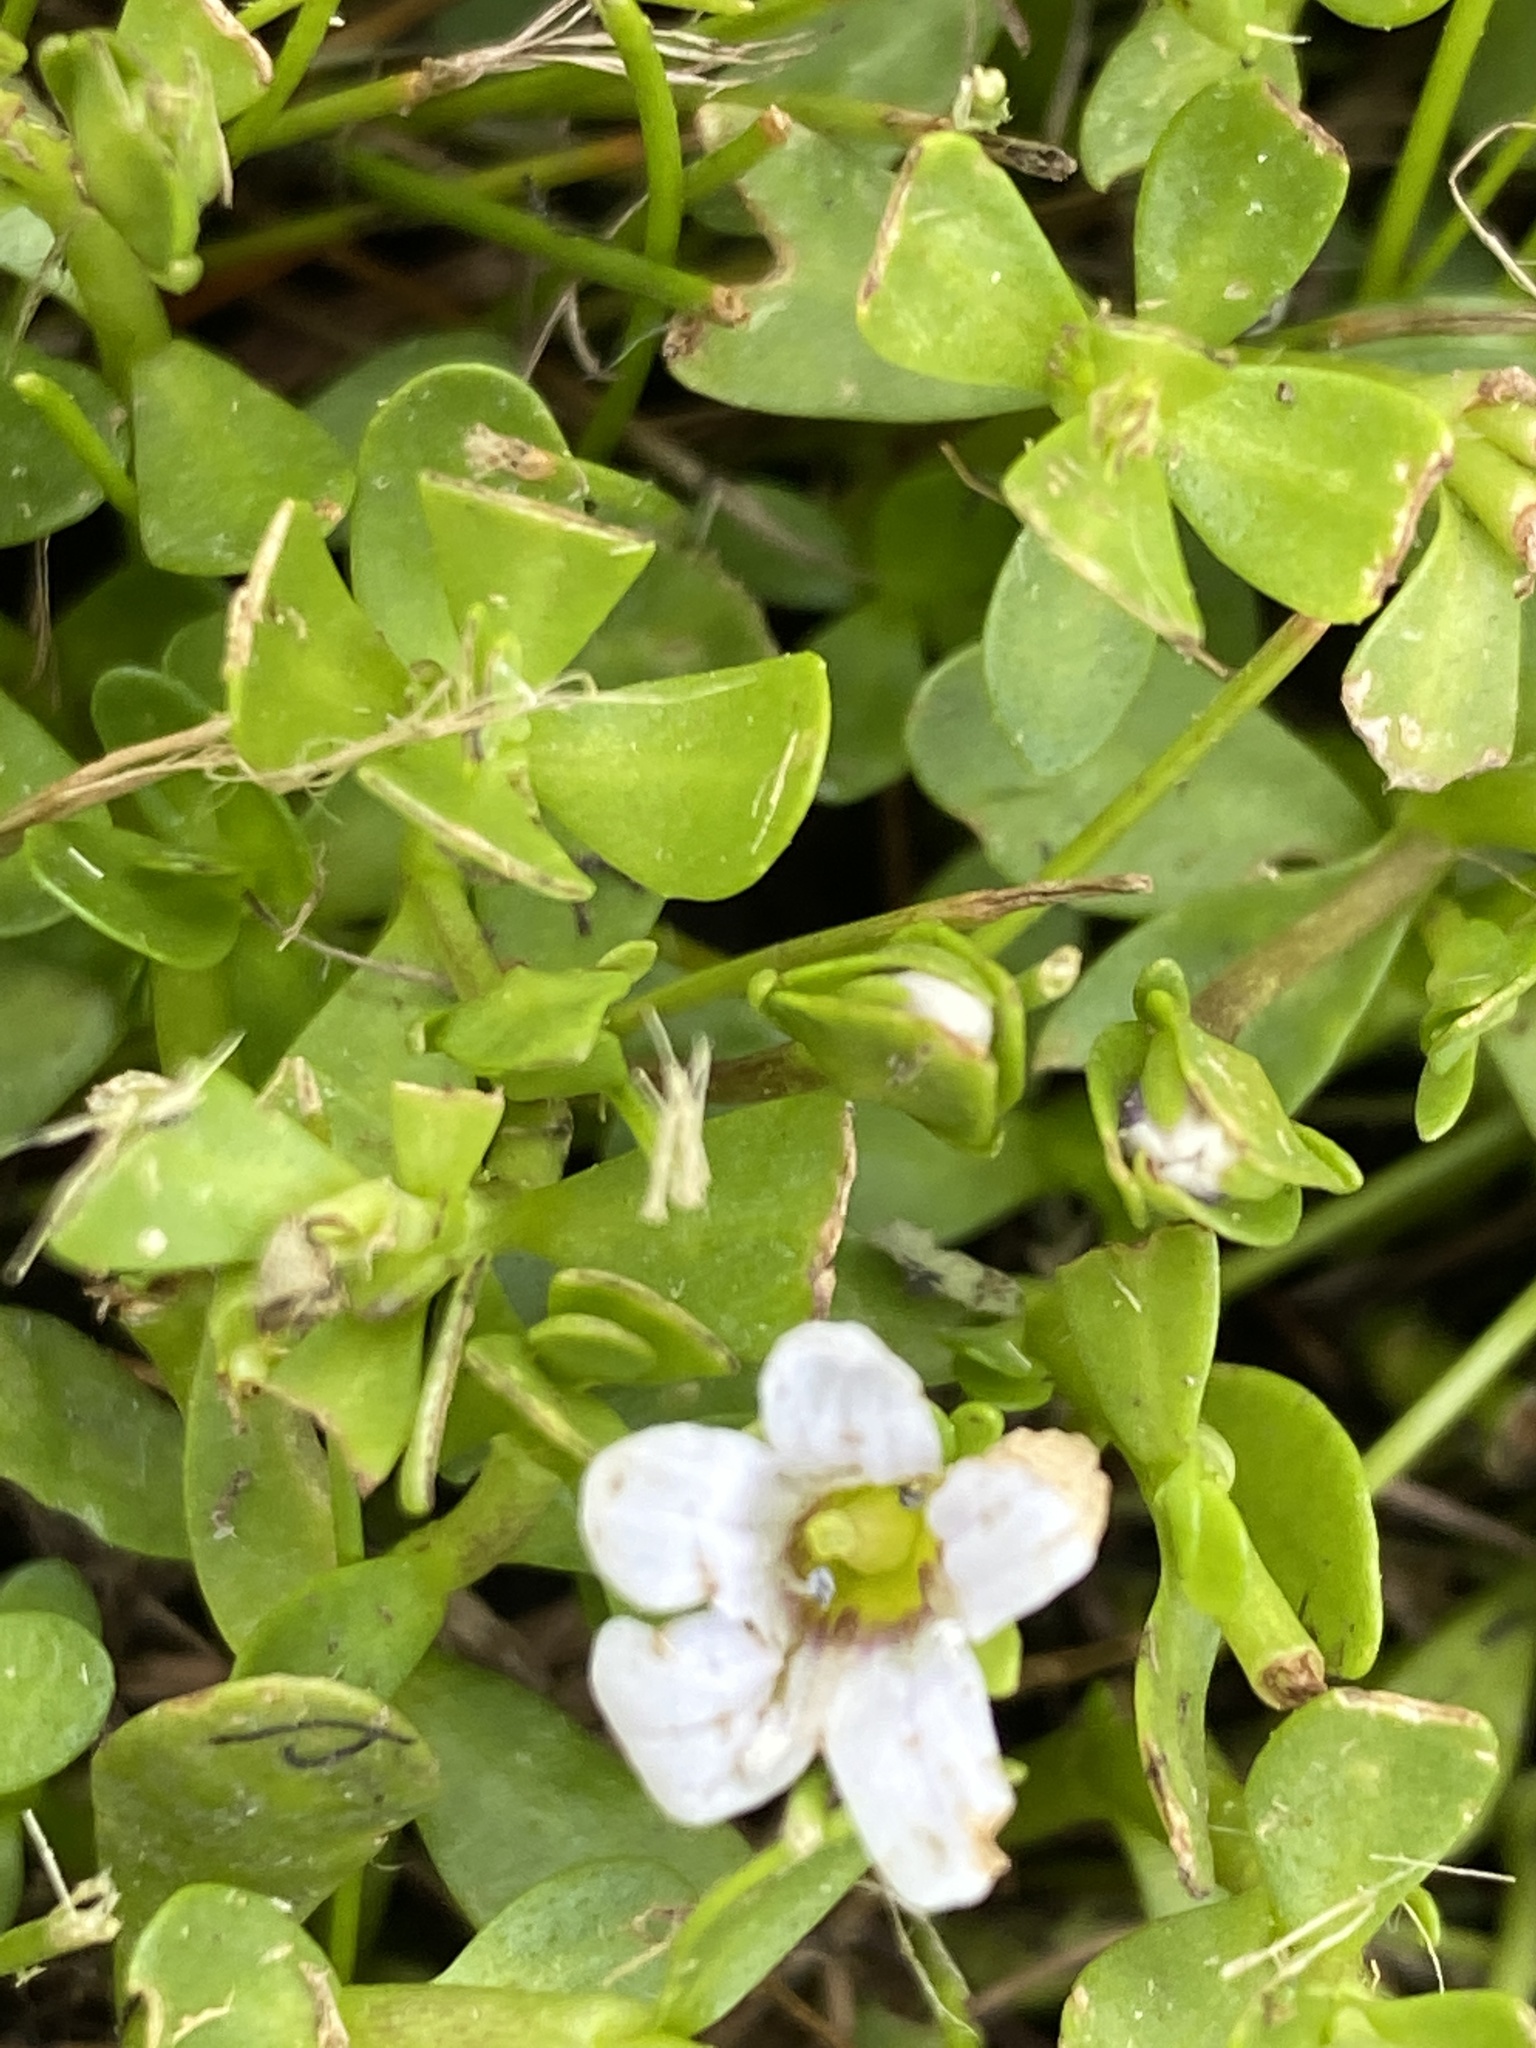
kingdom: Plantae
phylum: Tracheophyta
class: Magnoliopsida
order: Lamiales
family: Plantaginaceae
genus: Bacopa
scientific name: Bacopa monnieri
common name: Indian-pennywort
